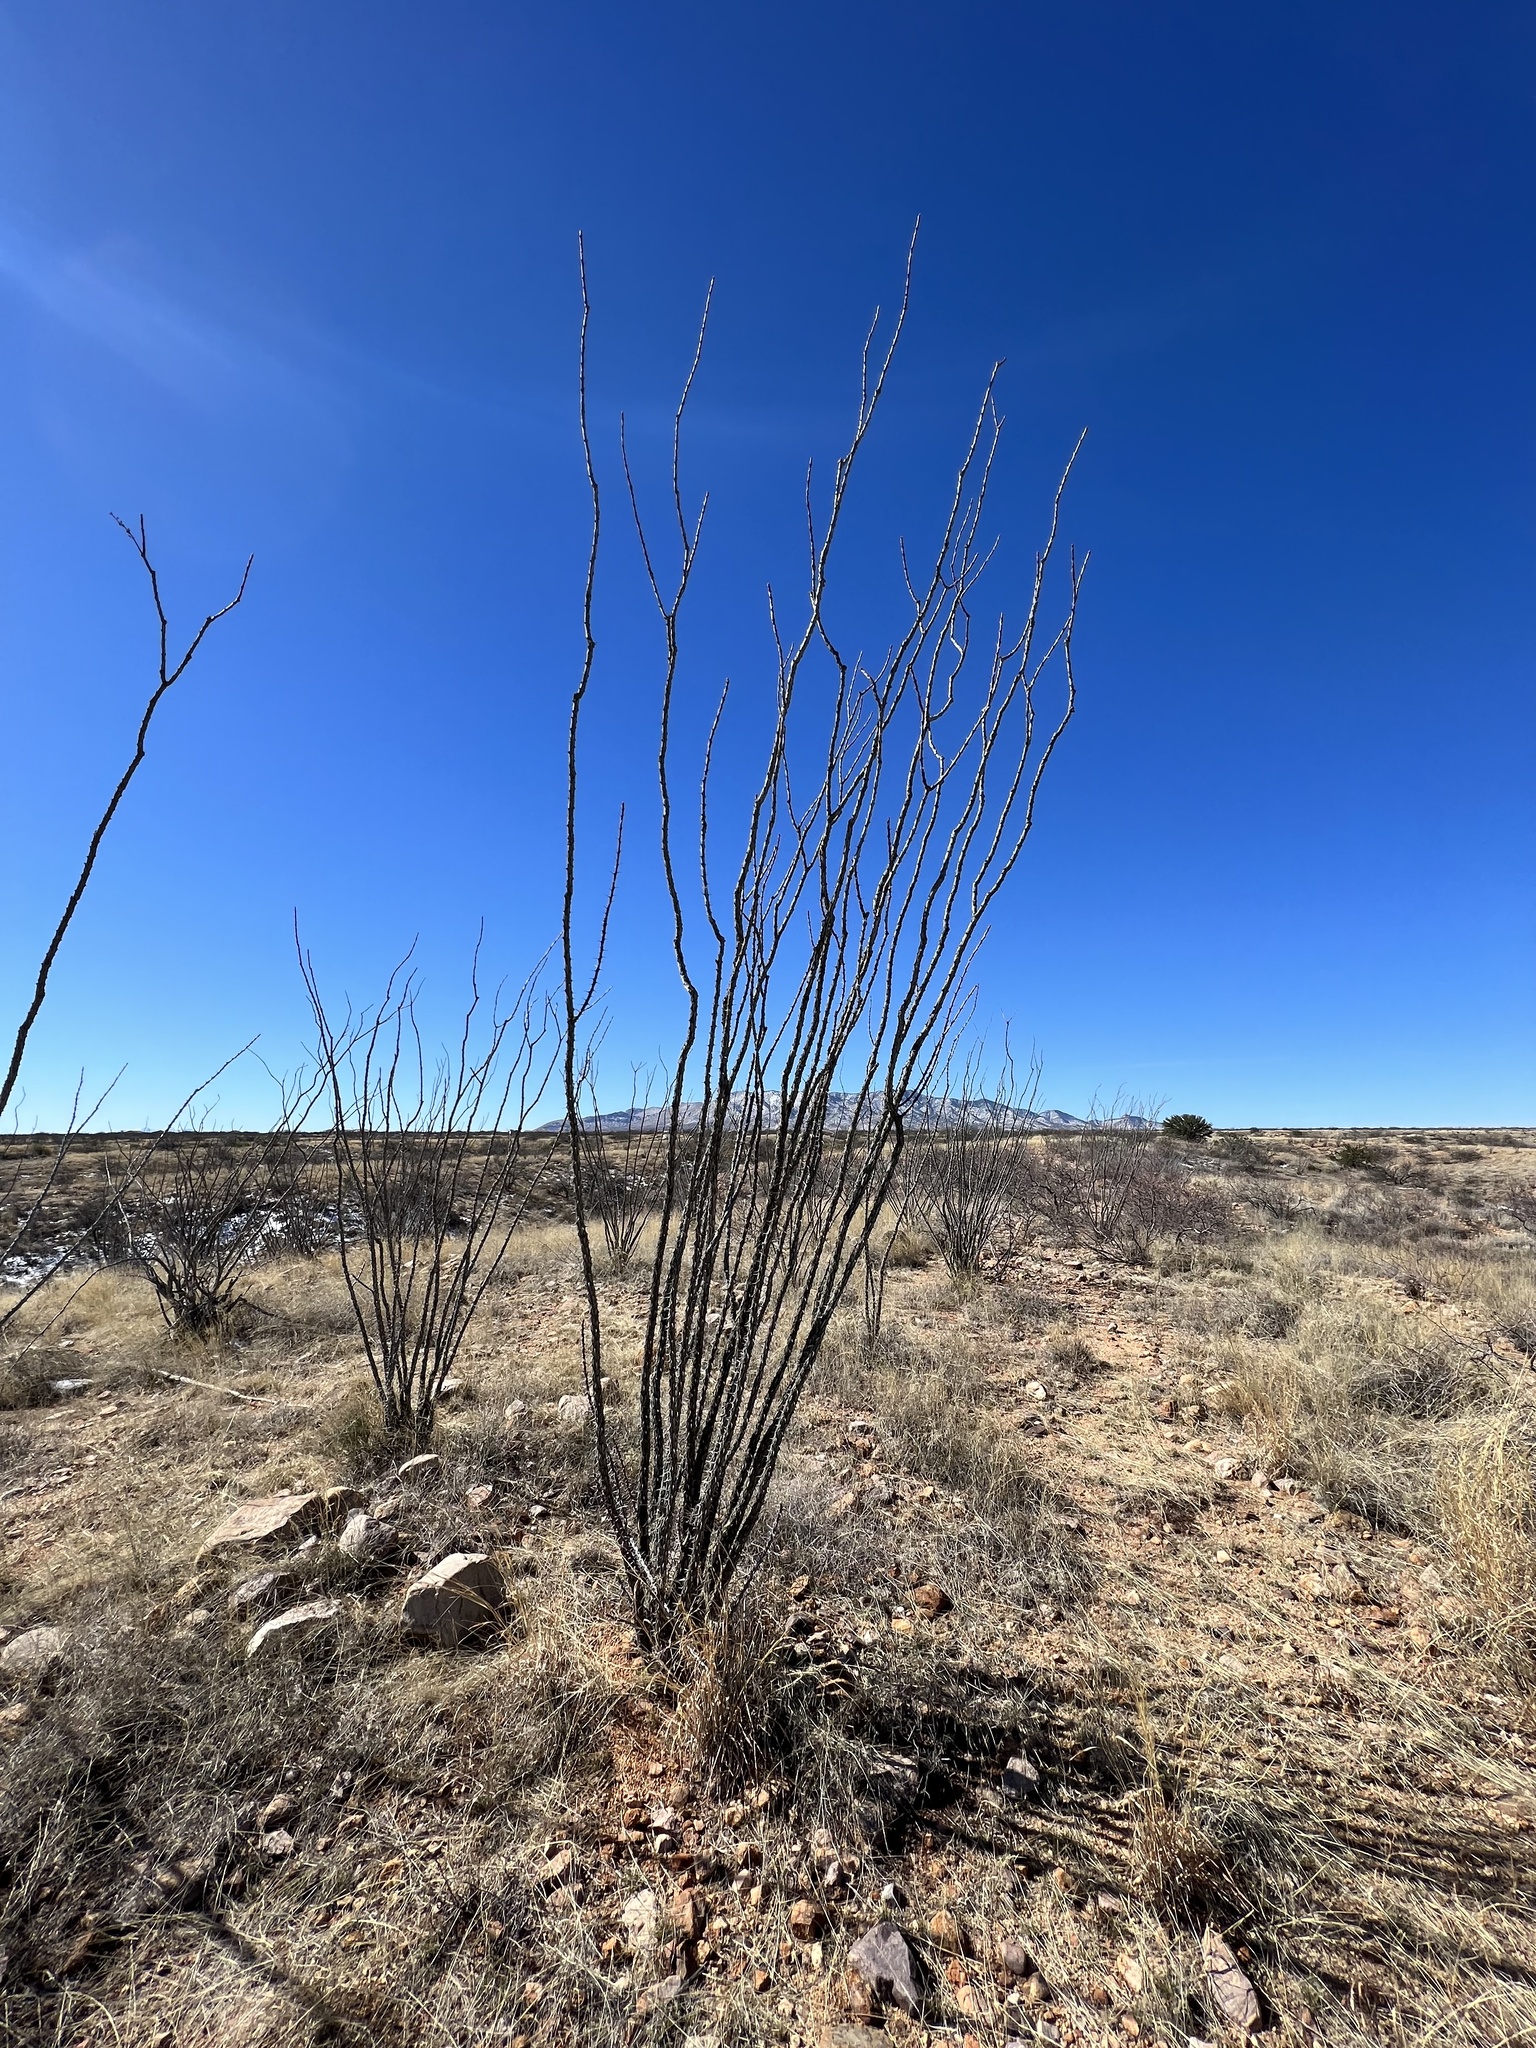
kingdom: Plantae
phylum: Tracheophyta
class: Magnoliopsida
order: Ericales
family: Fouquieriaceae
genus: Fouquieria
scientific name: Fouquieria splendens
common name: Vine-cactus
